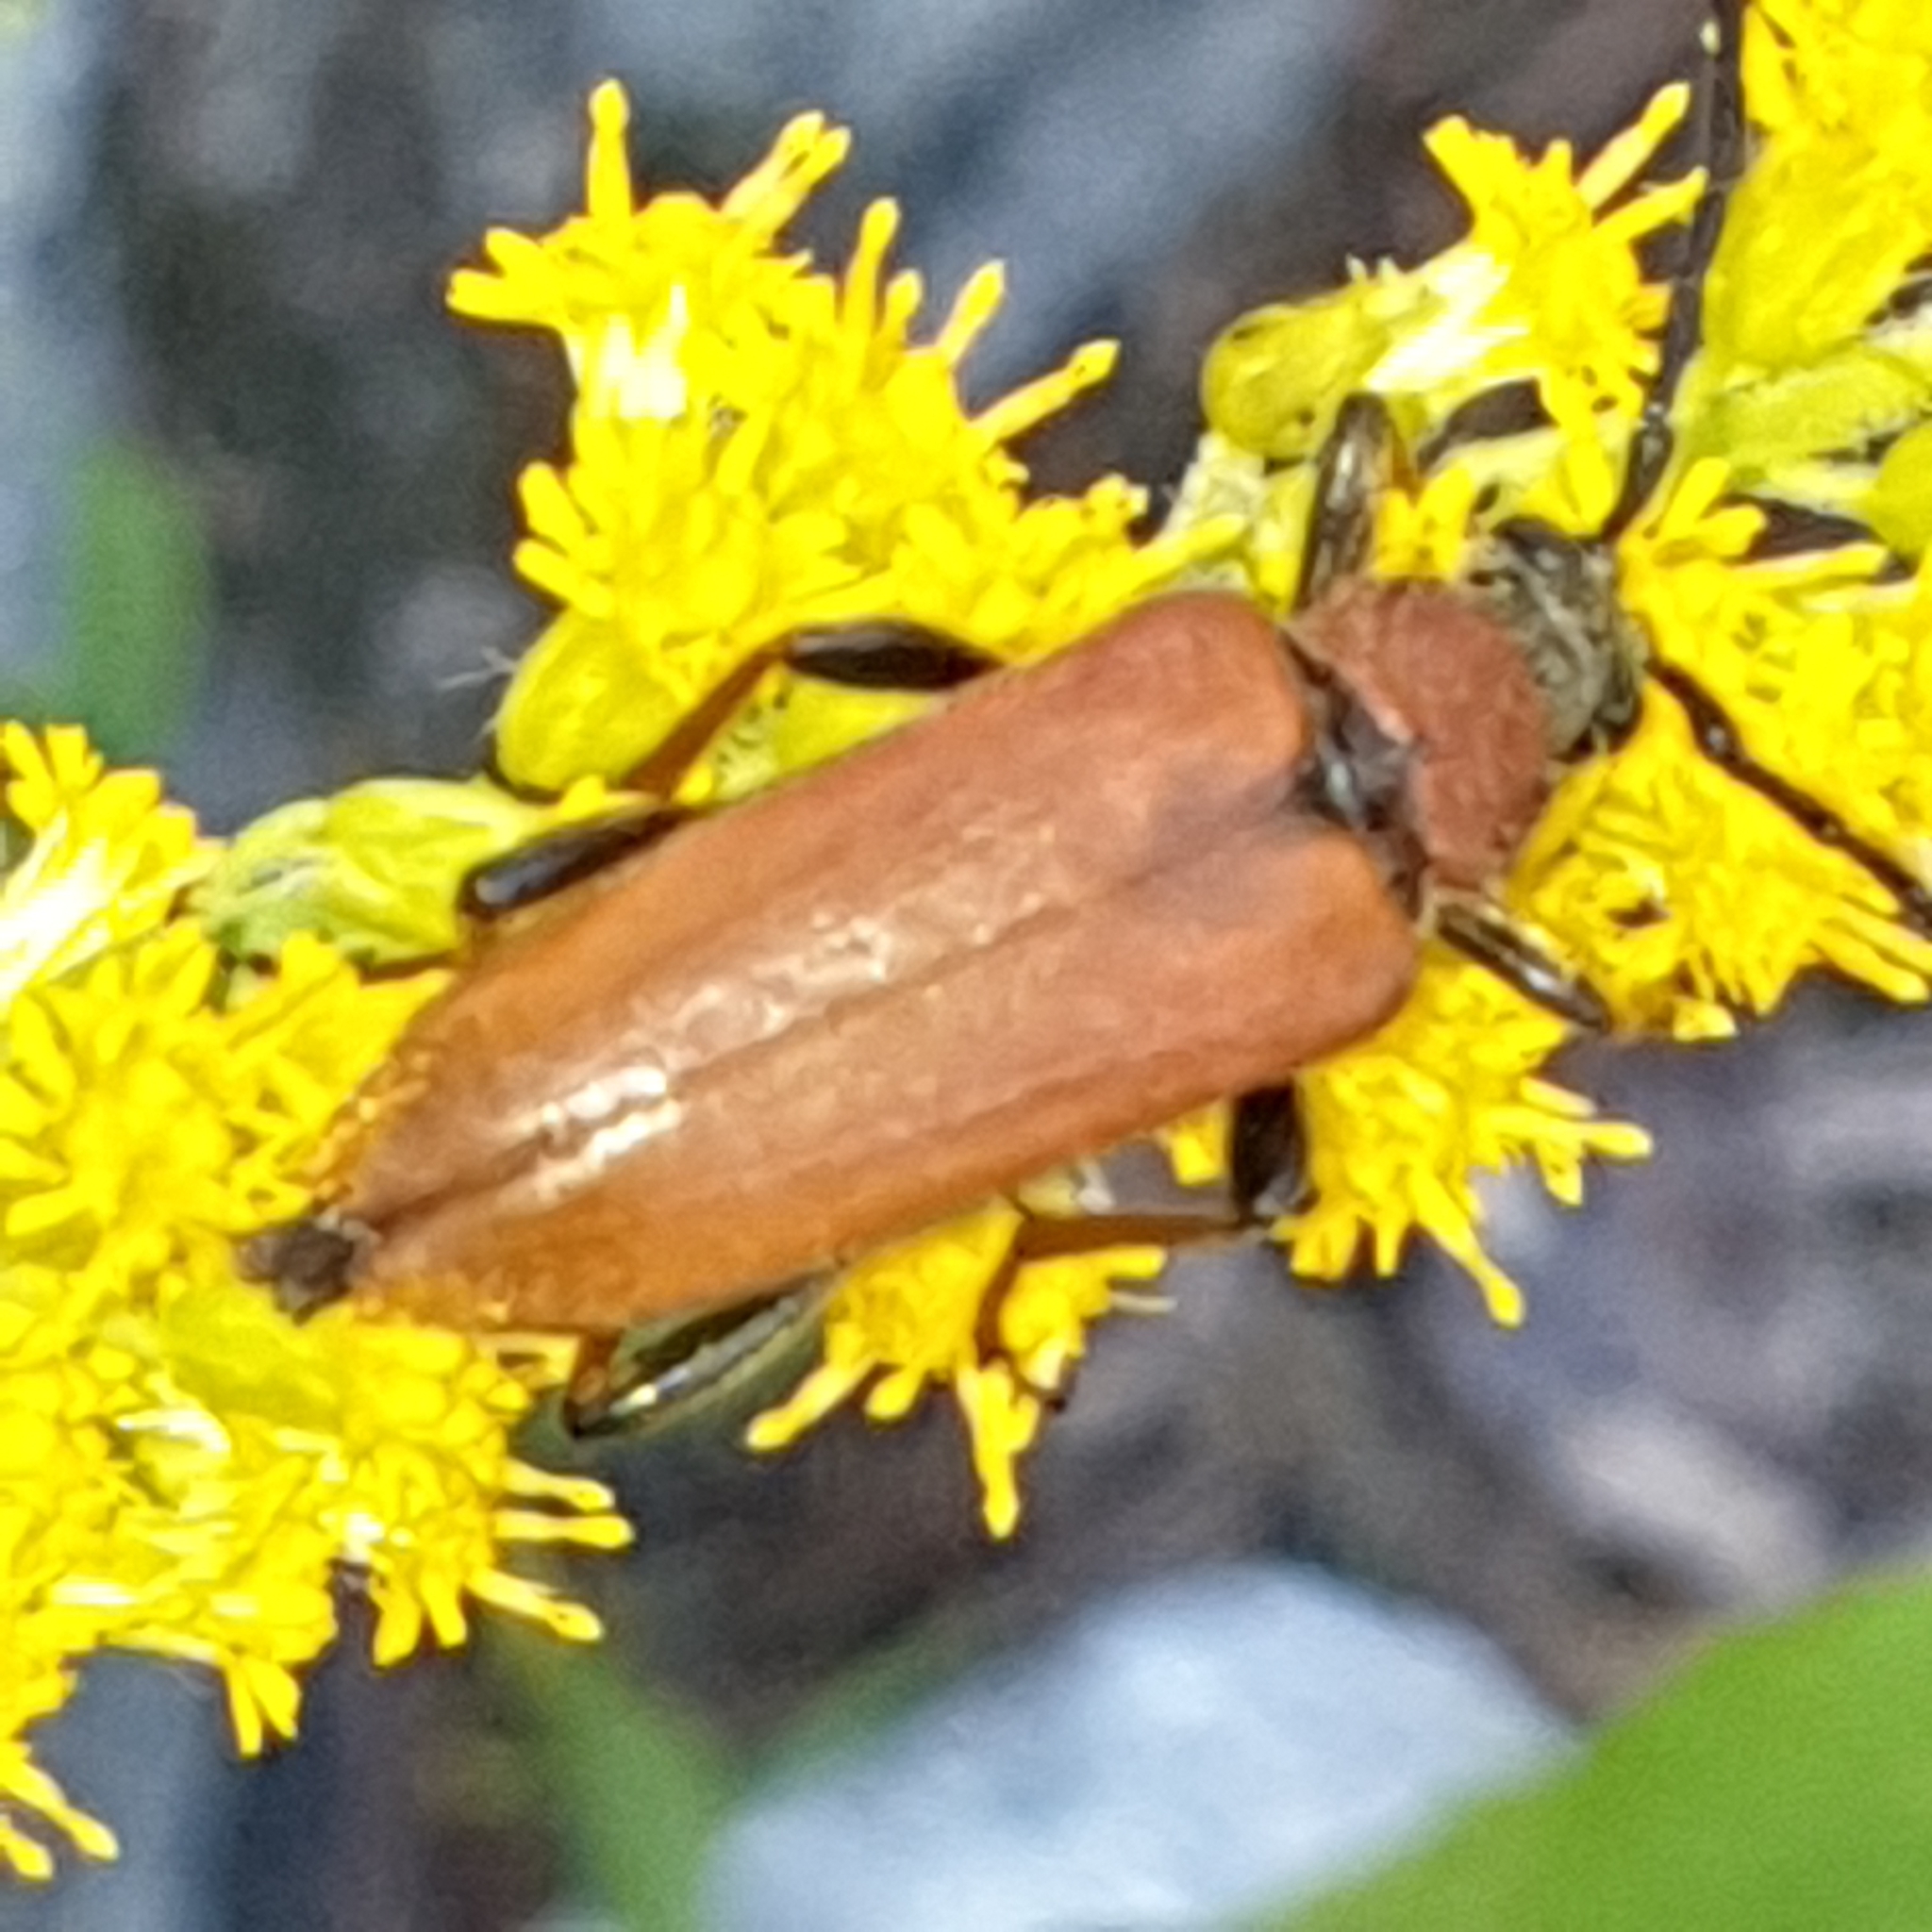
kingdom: Animalia
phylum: Arthropoda
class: Insecta
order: Coleoptera
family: Cerambycidae
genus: Stictoleptura
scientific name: Stictoleptura rubra
